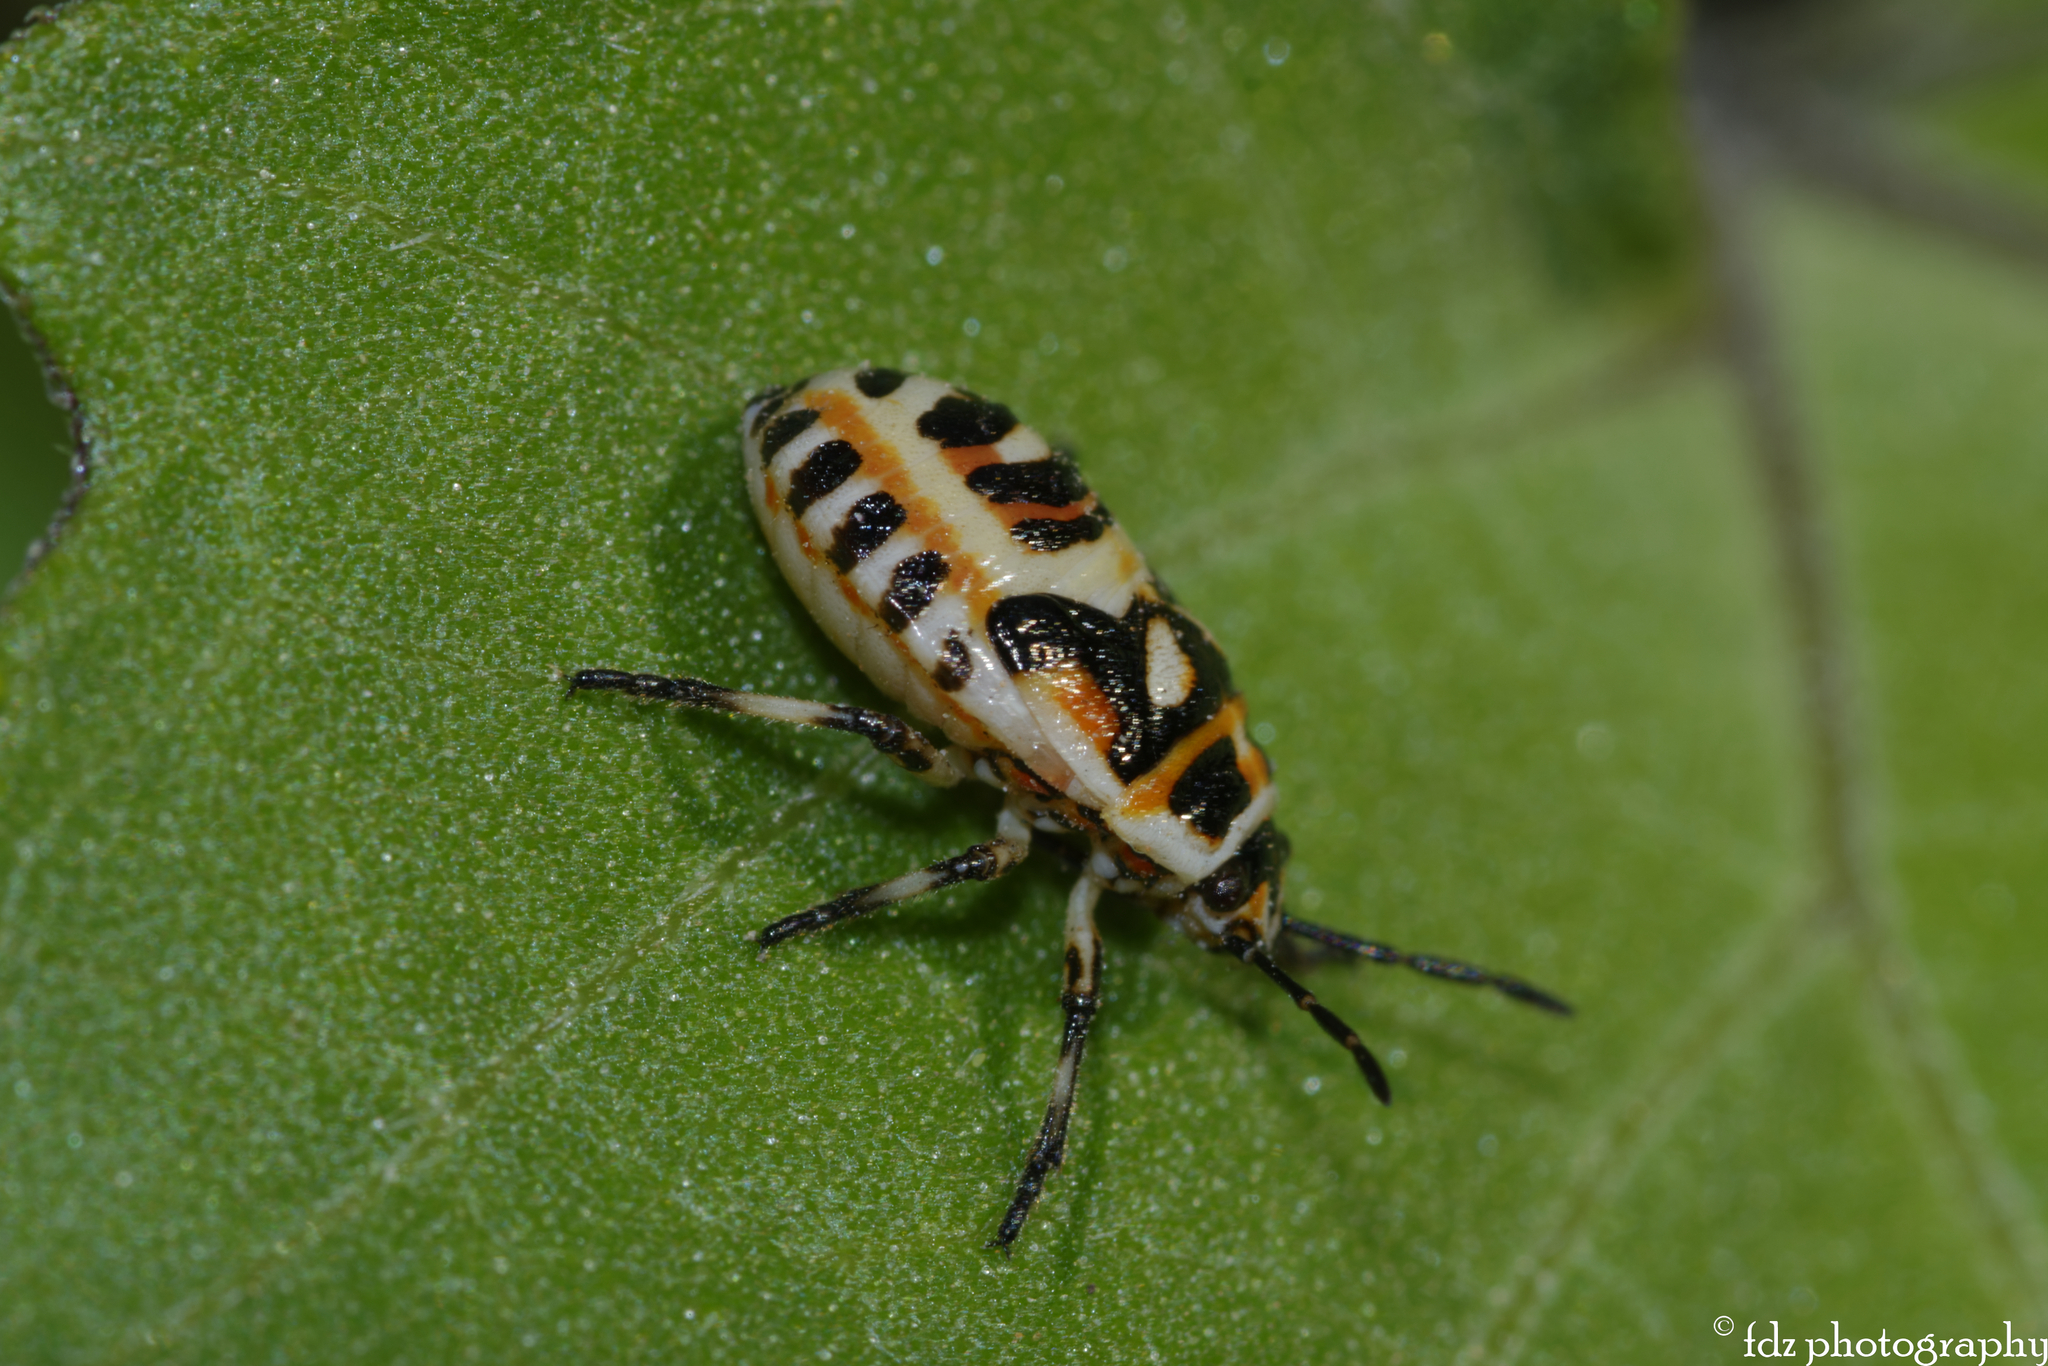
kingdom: Animalia
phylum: Arthropoda
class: Insecta
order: Hemiptera
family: Pentatomidae
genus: Eurydema
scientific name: Eurydema ornata
